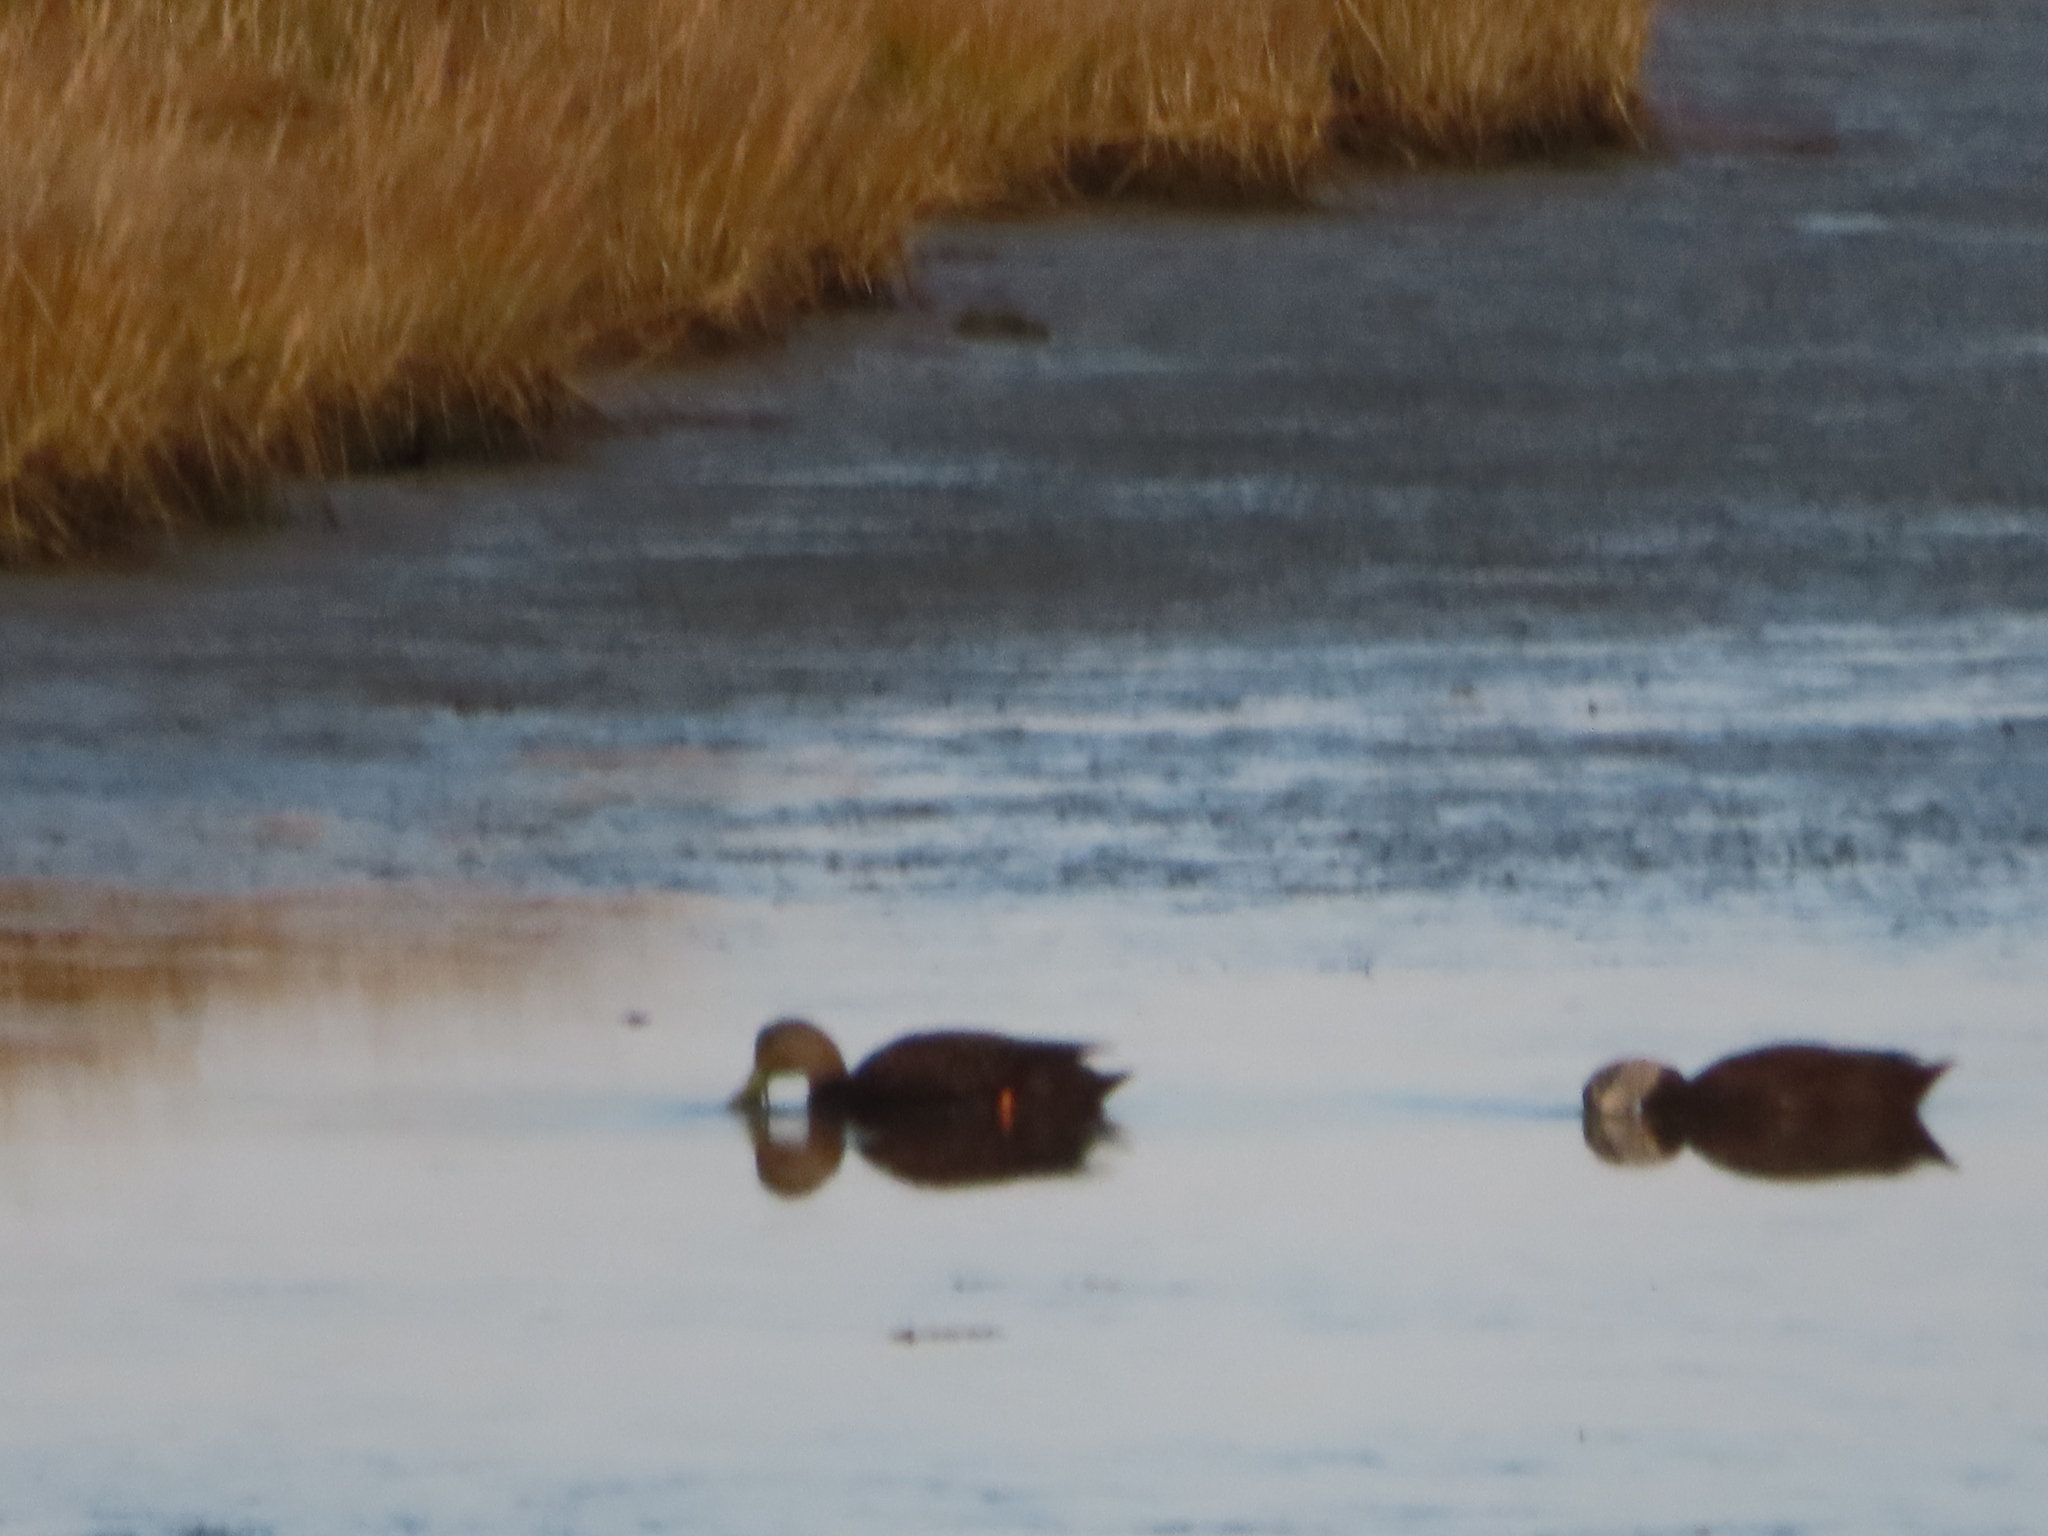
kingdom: Animalia
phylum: Chordata
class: Aves
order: Anseriformes
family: Anatidae
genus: Anas
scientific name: Anas rubripes
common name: American black duck
